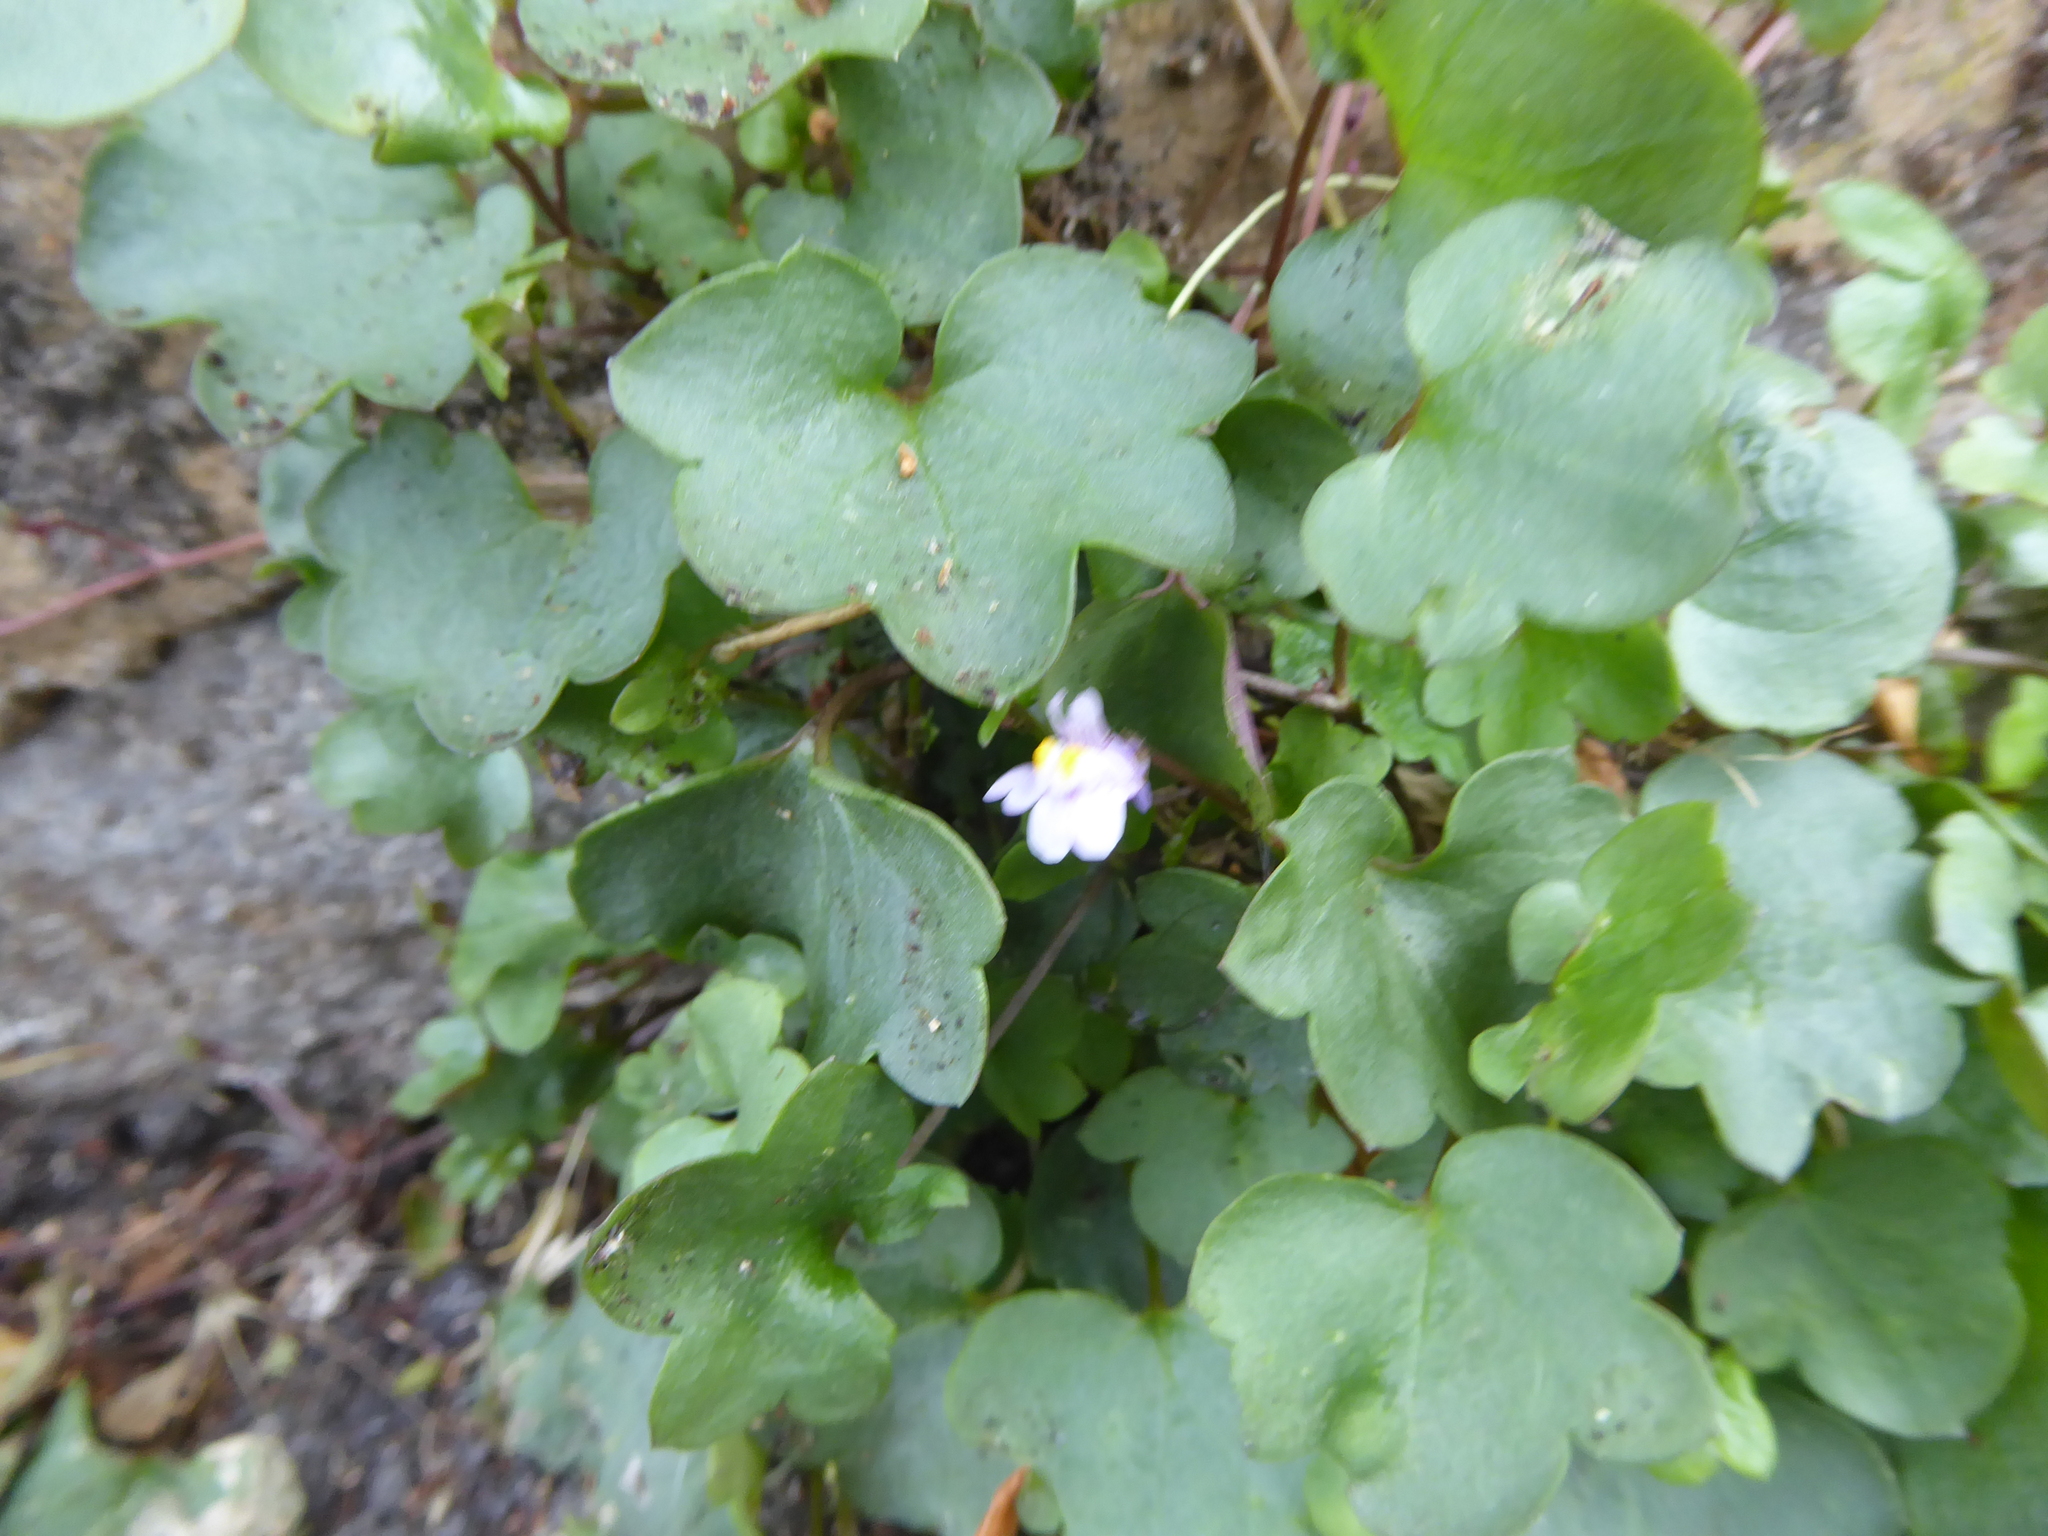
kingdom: Plantae
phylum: Tracheophyta
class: Magnoliopsida
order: Lamiales
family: Plantaginaceae
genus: Cymbalaria
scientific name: Cymbalaria muralis
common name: Ivy-leaved toadflax
